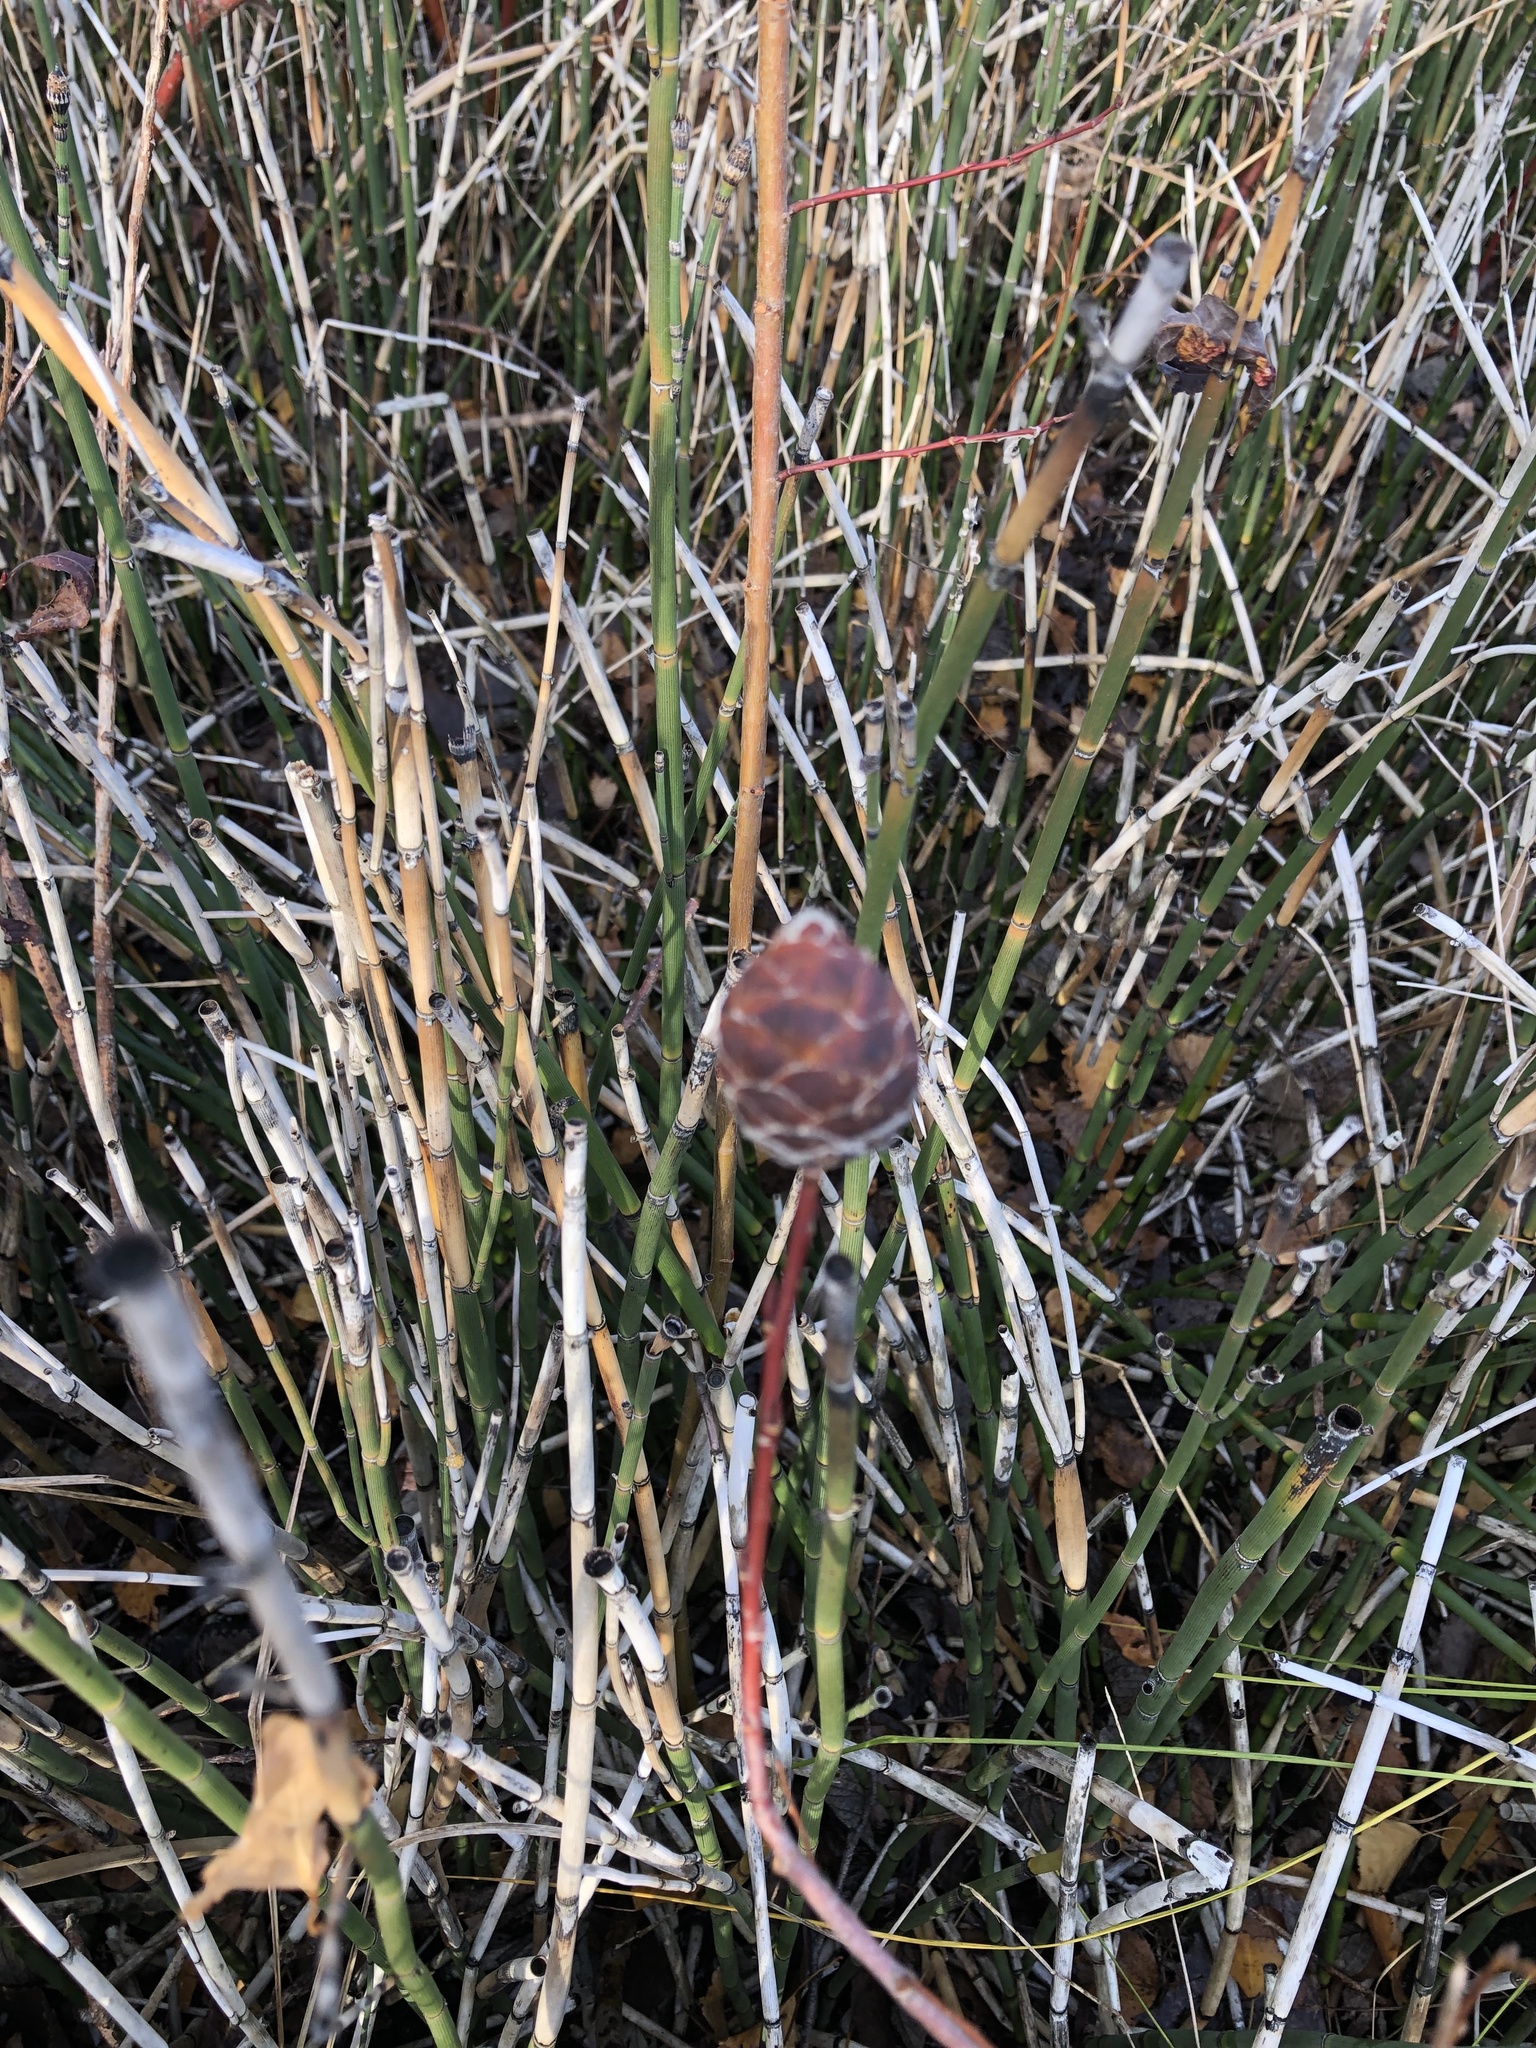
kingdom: Animalia
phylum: Arthropoda
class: Insecta
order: Diptera
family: Cecidomyiidae
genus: Rabdophaga
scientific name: Rabdophaga strobiloides
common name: Willow pinecone gall midge
